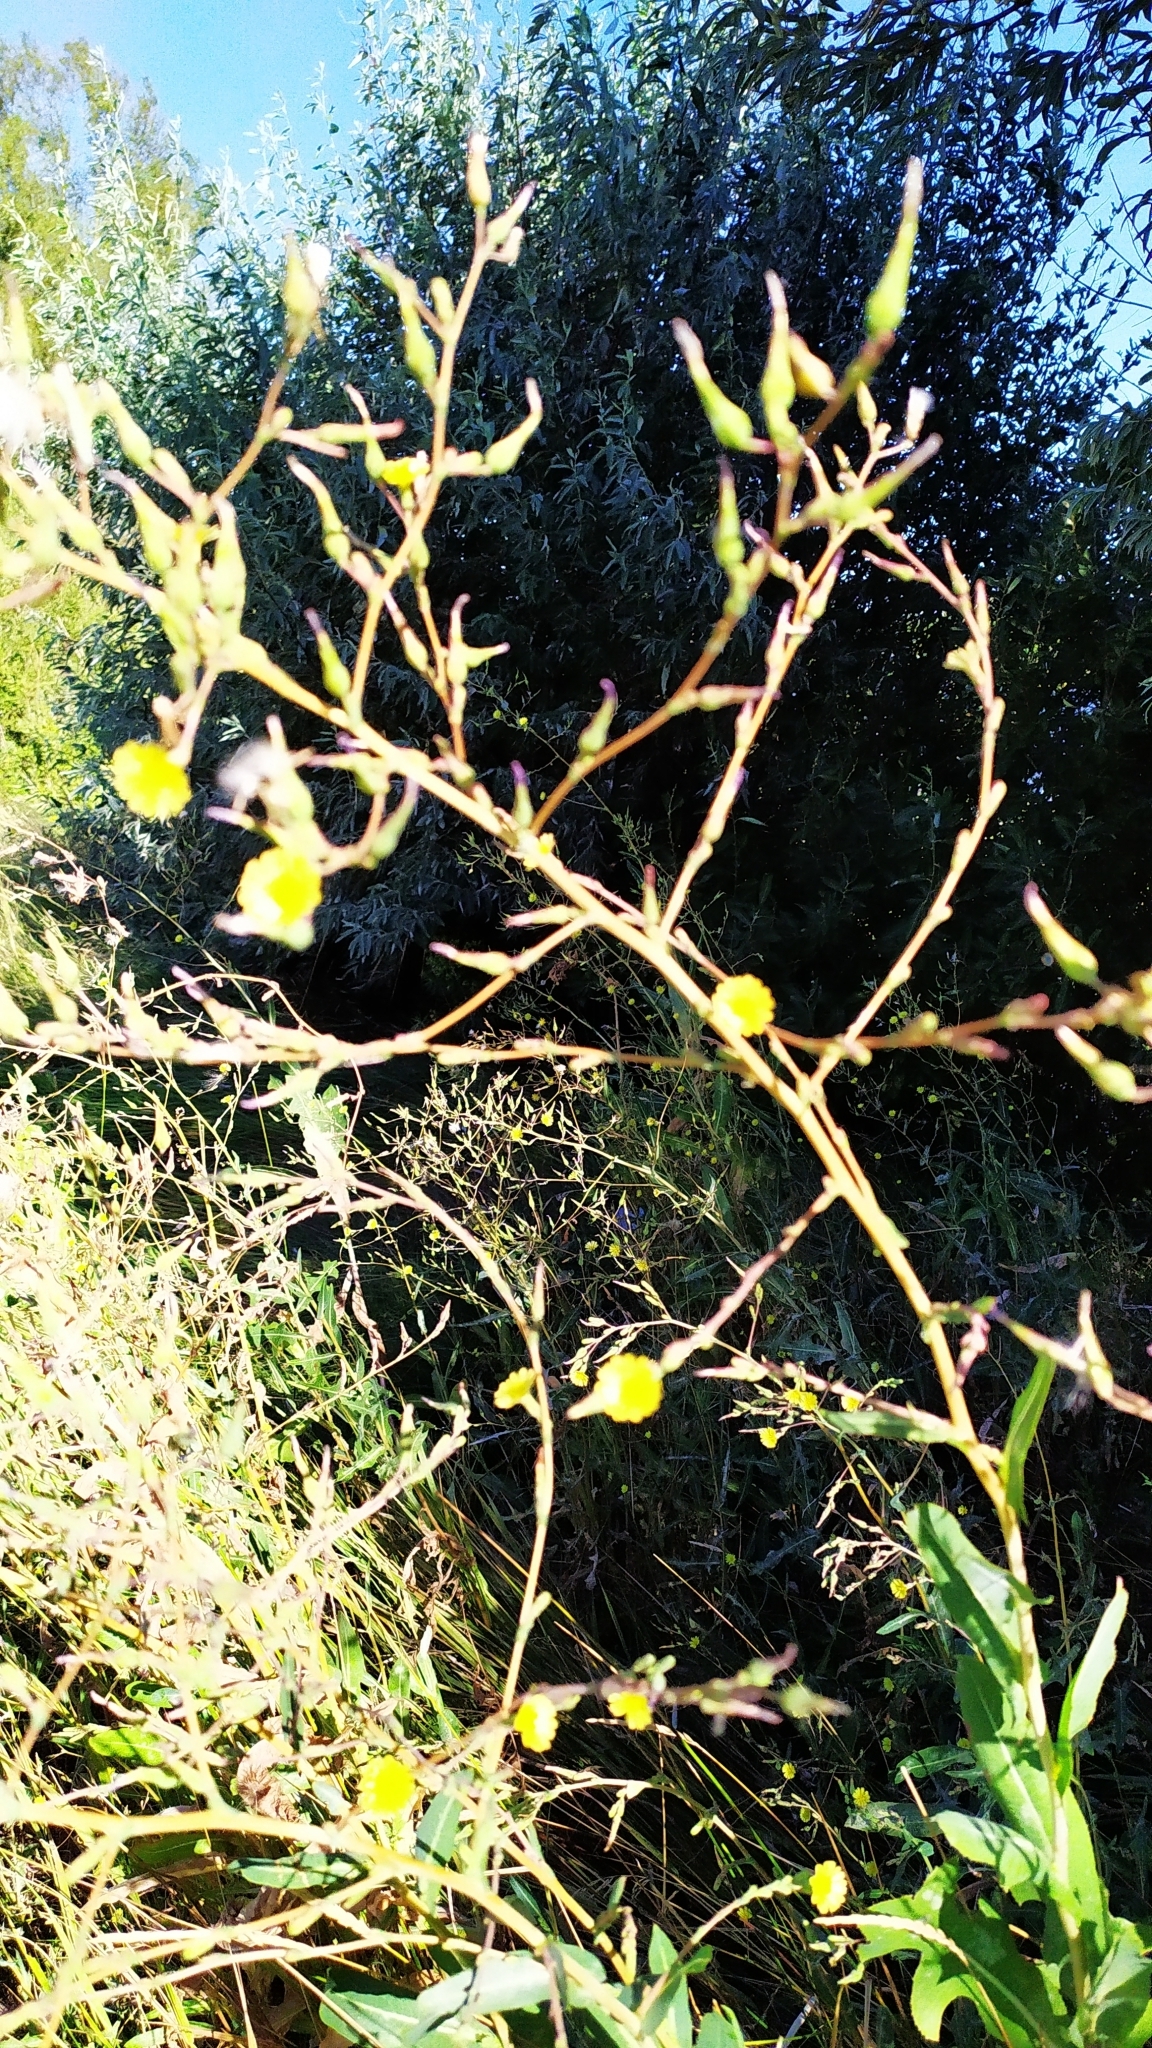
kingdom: Plantae
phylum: Tracheophyta
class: Magnoliopsida
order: Asterales
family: Asteraceae
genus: Lactuca
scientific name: Lactuca serriola
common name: Prickly lettuce
